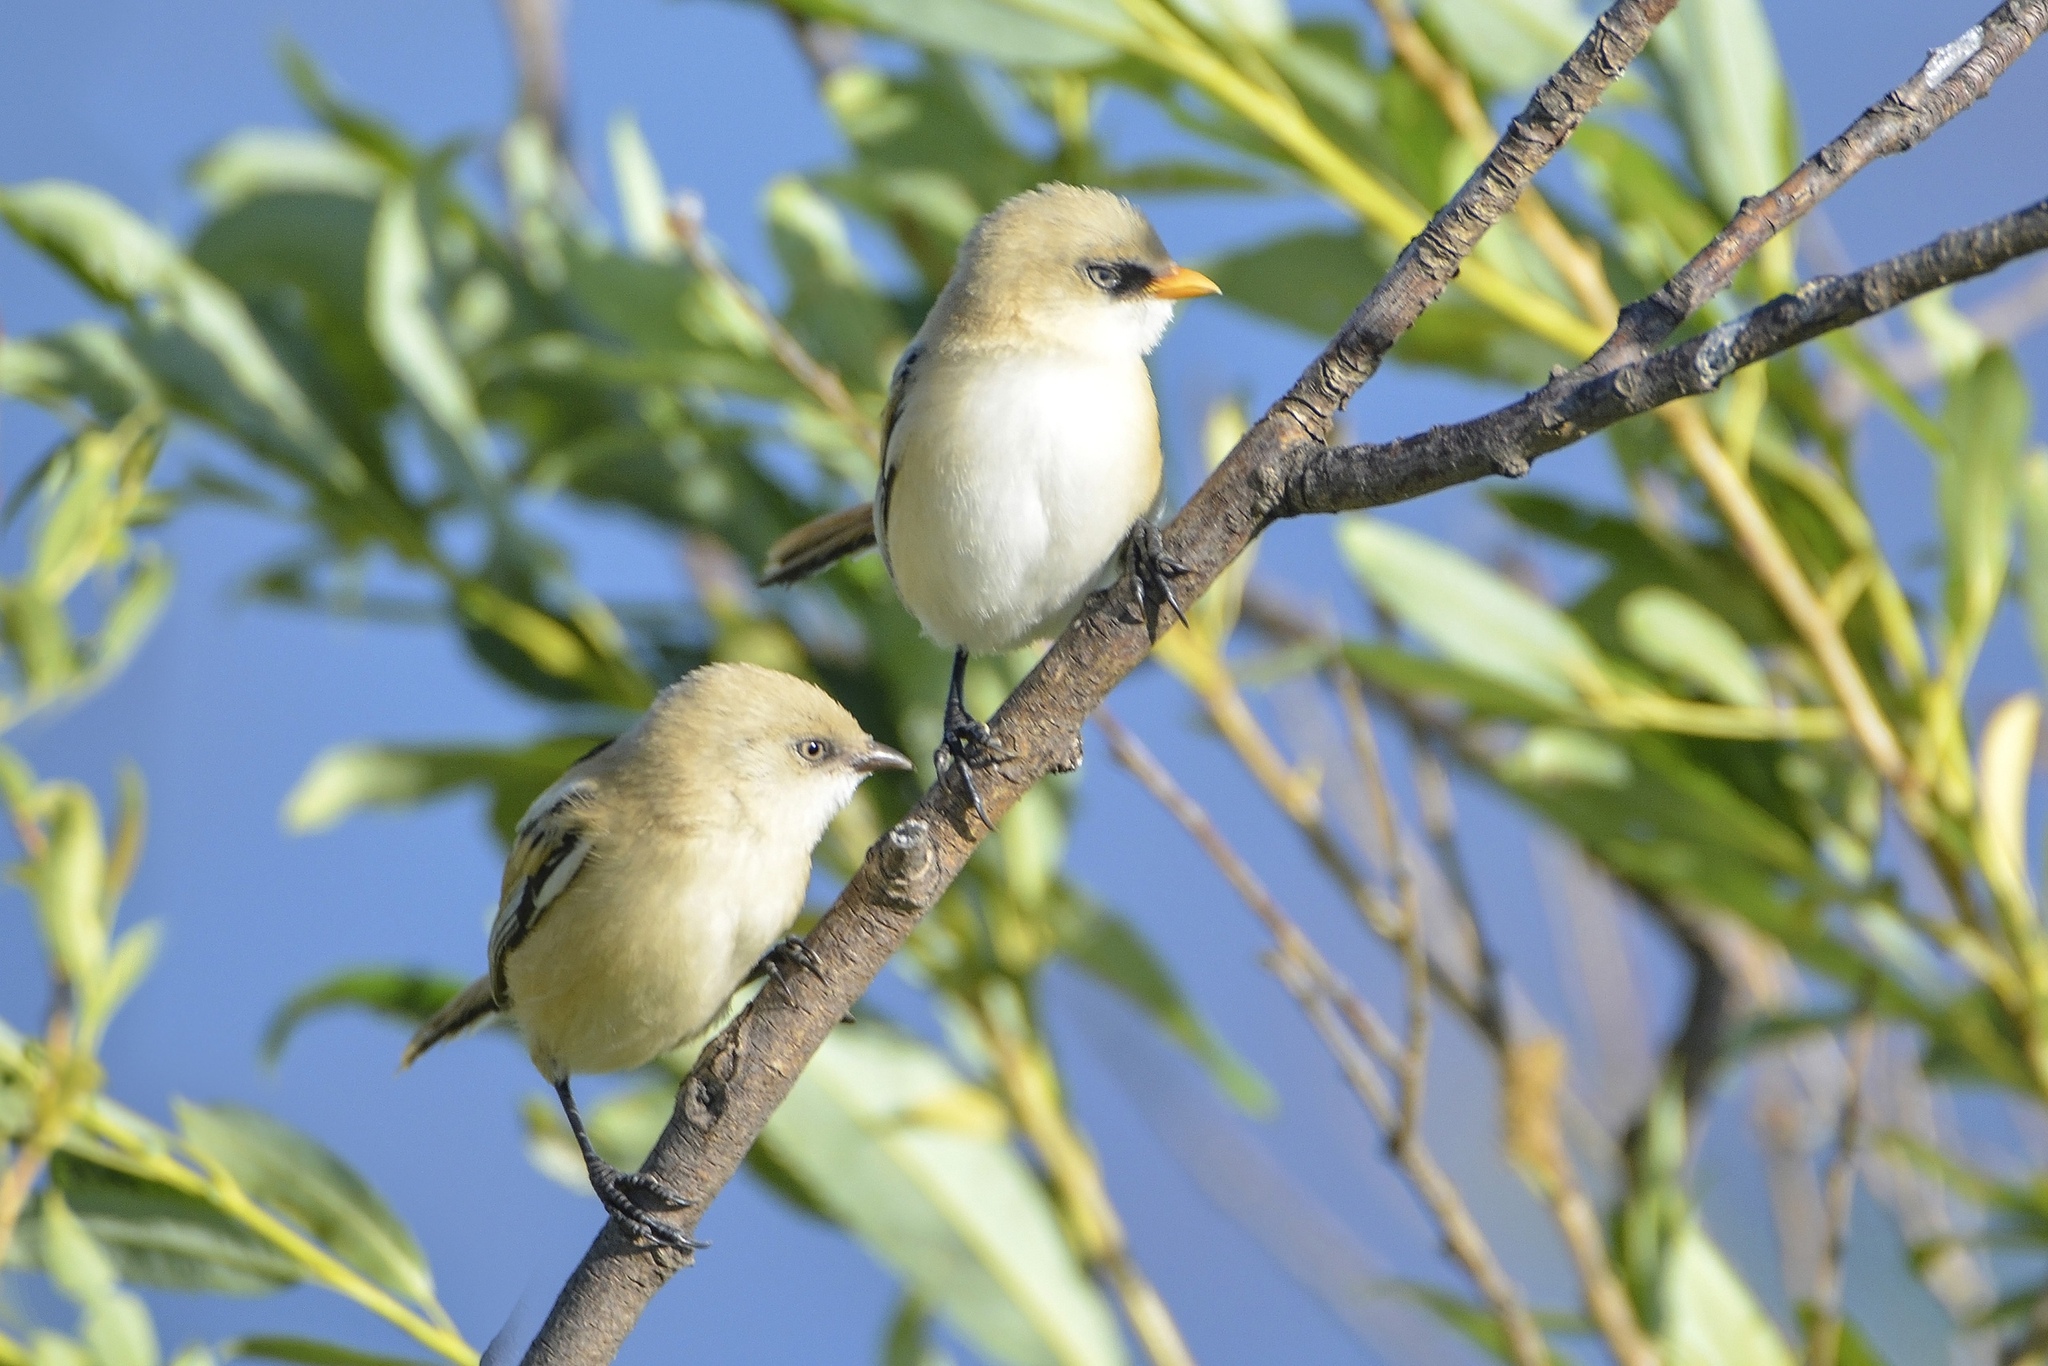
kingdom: Animalia
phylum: Chordata
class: Aves
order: Passeriformes
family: Panuridae
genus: Panurus
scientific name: Panurus biarmicus
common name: Bearded reedling
